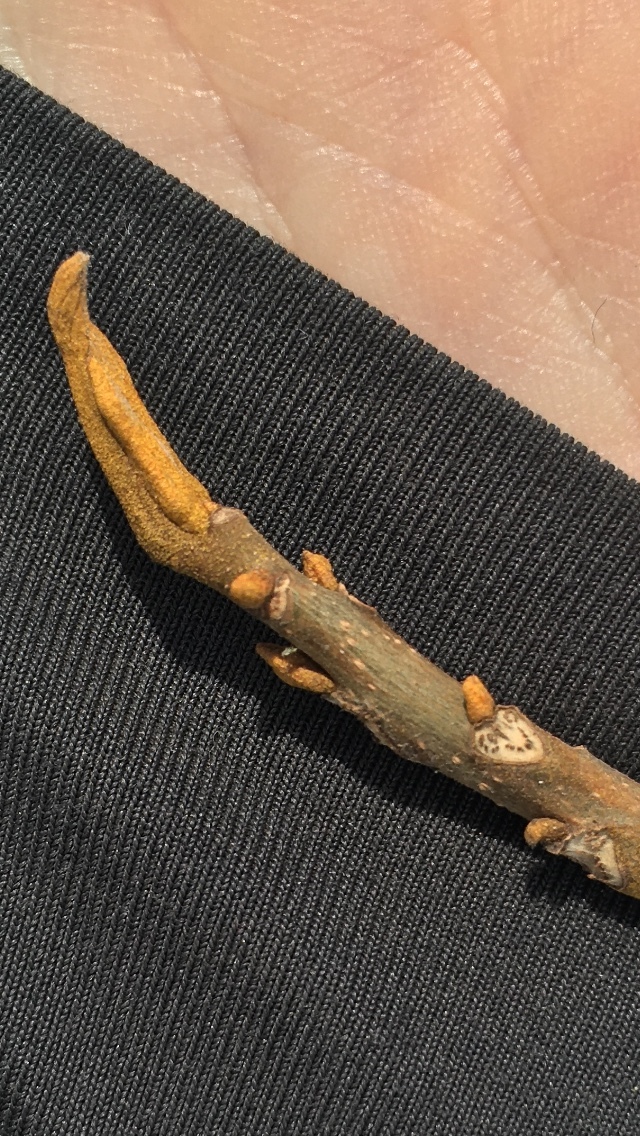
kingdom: Plantae
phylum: Tracheophyta
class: Magnoliopsida
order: Fagales
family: Juglandaceae
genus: Carya
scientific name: Carya cordiformis
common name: Bitternut hickory
